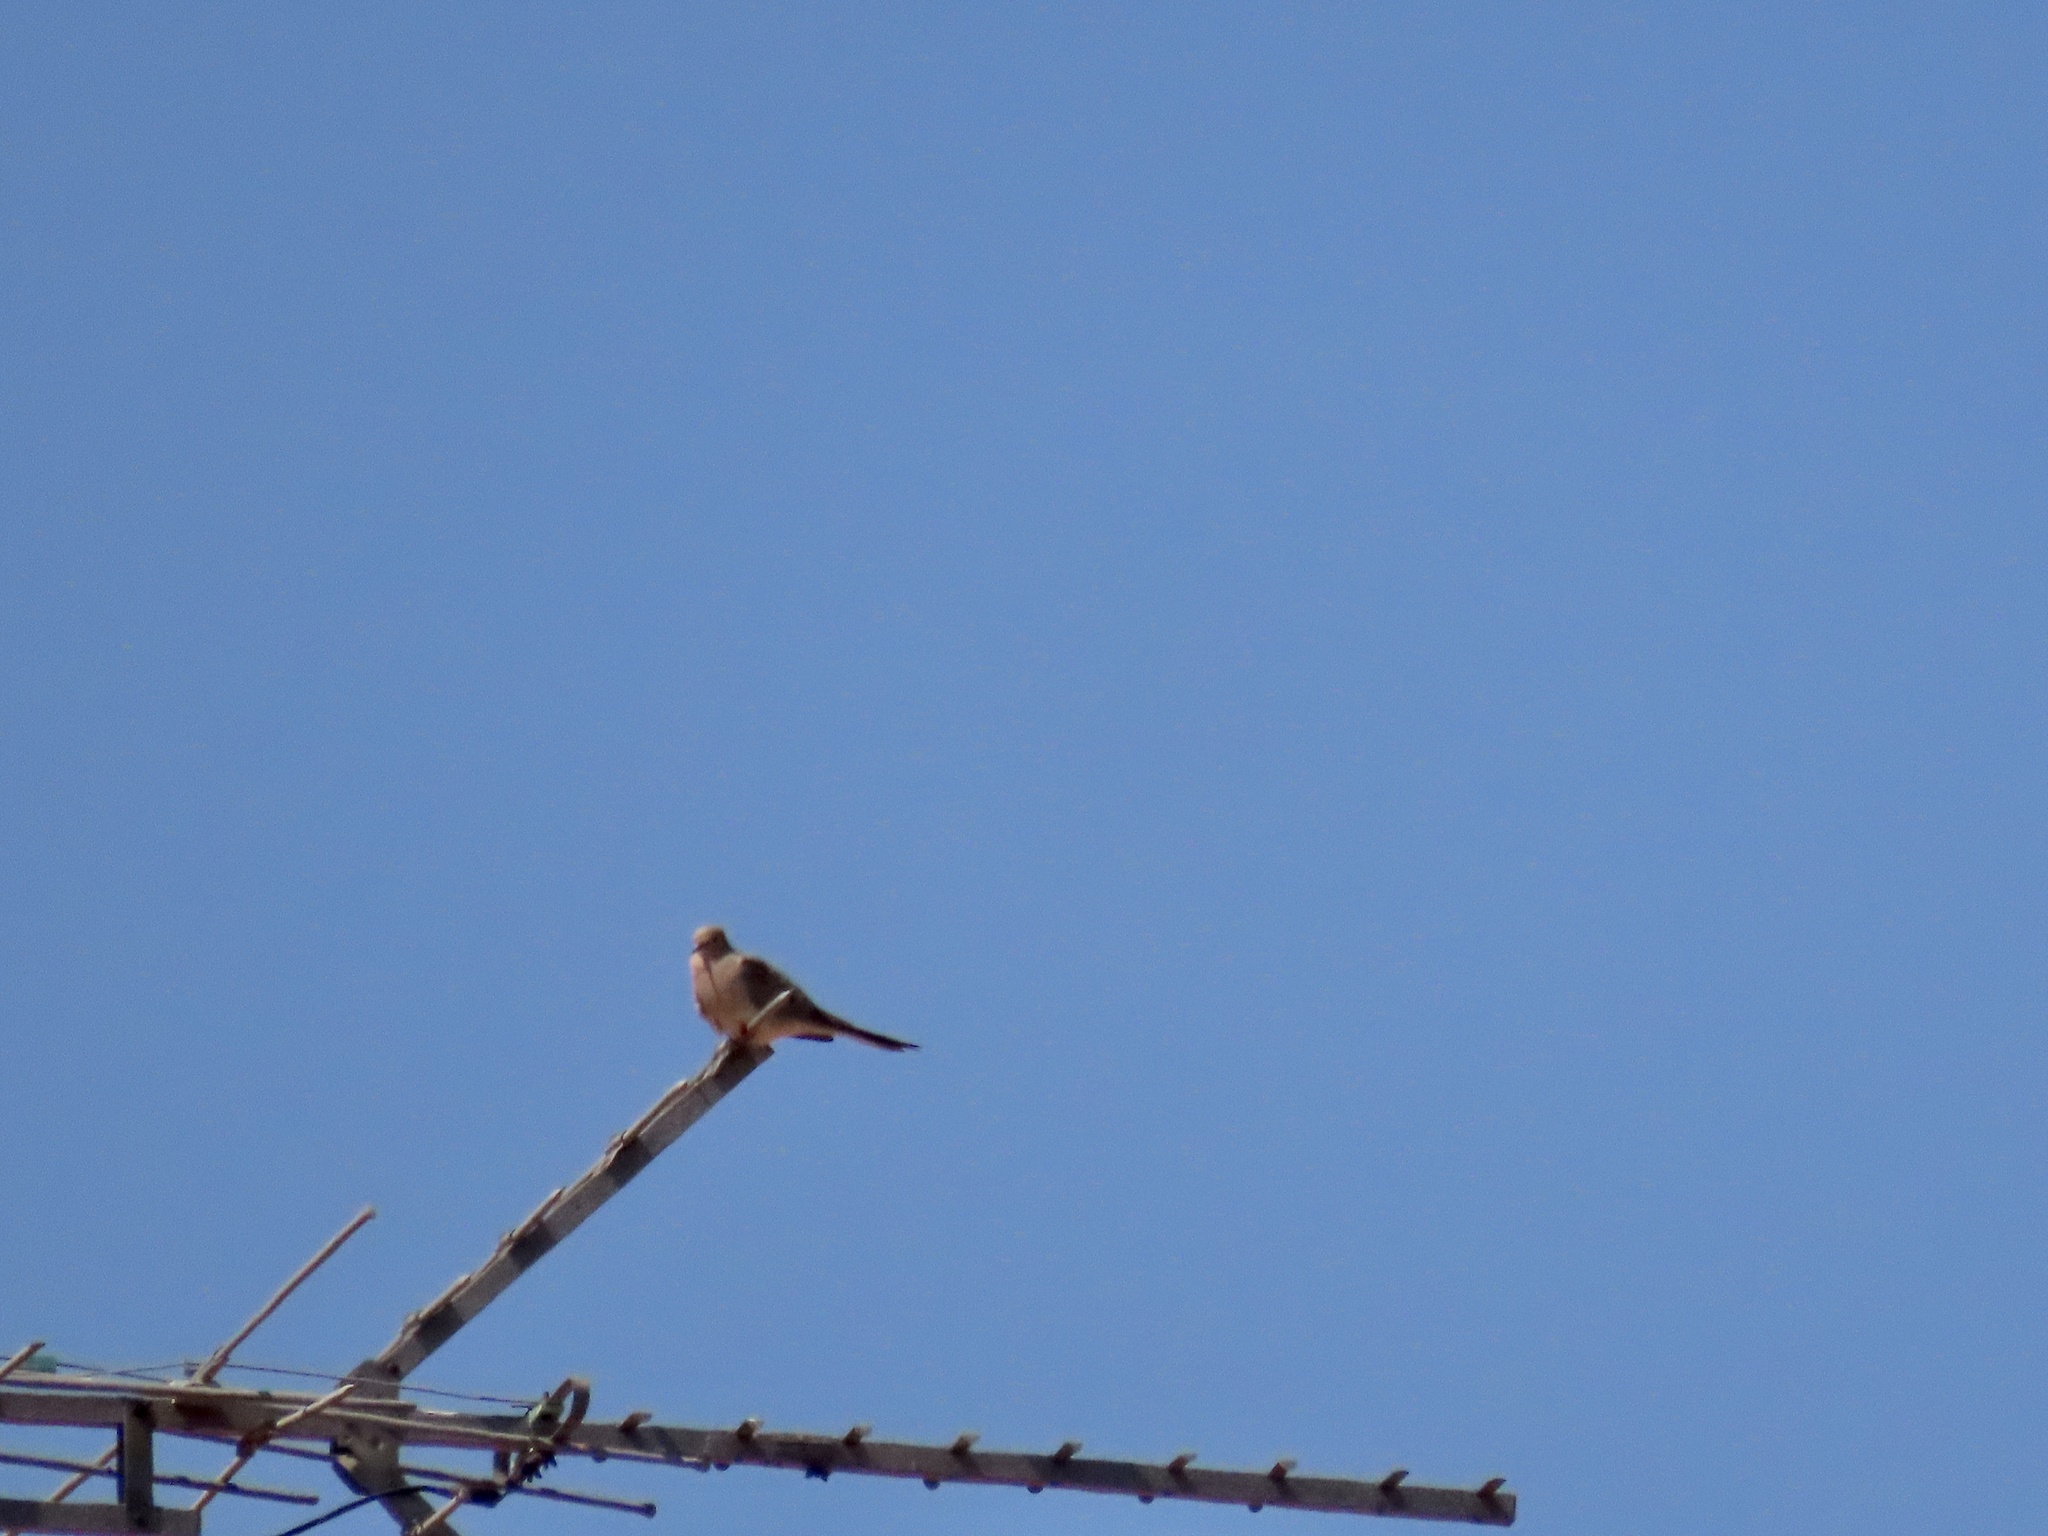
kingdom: Animalia
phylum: Chordata
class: Aves
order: Columbiformes
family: Columbidae
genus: Zenaida
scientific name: Zenaida macroura
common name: Mourning dove
